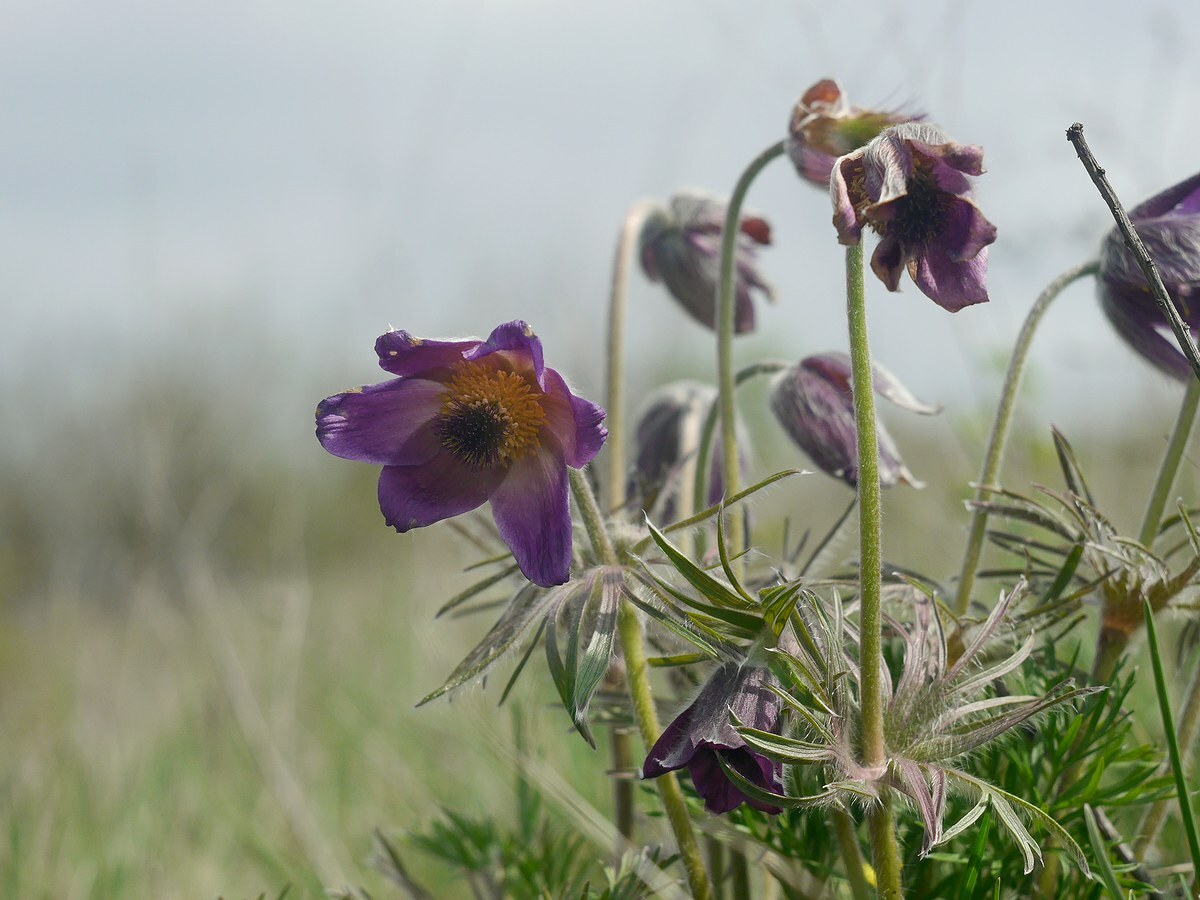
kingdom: Plantae
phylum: Tracheophyta
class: Magnoliopsida
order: Ranunculales
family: Ranunculaceae
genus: Pulsatilla
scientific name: Pulsatilla pratensis
